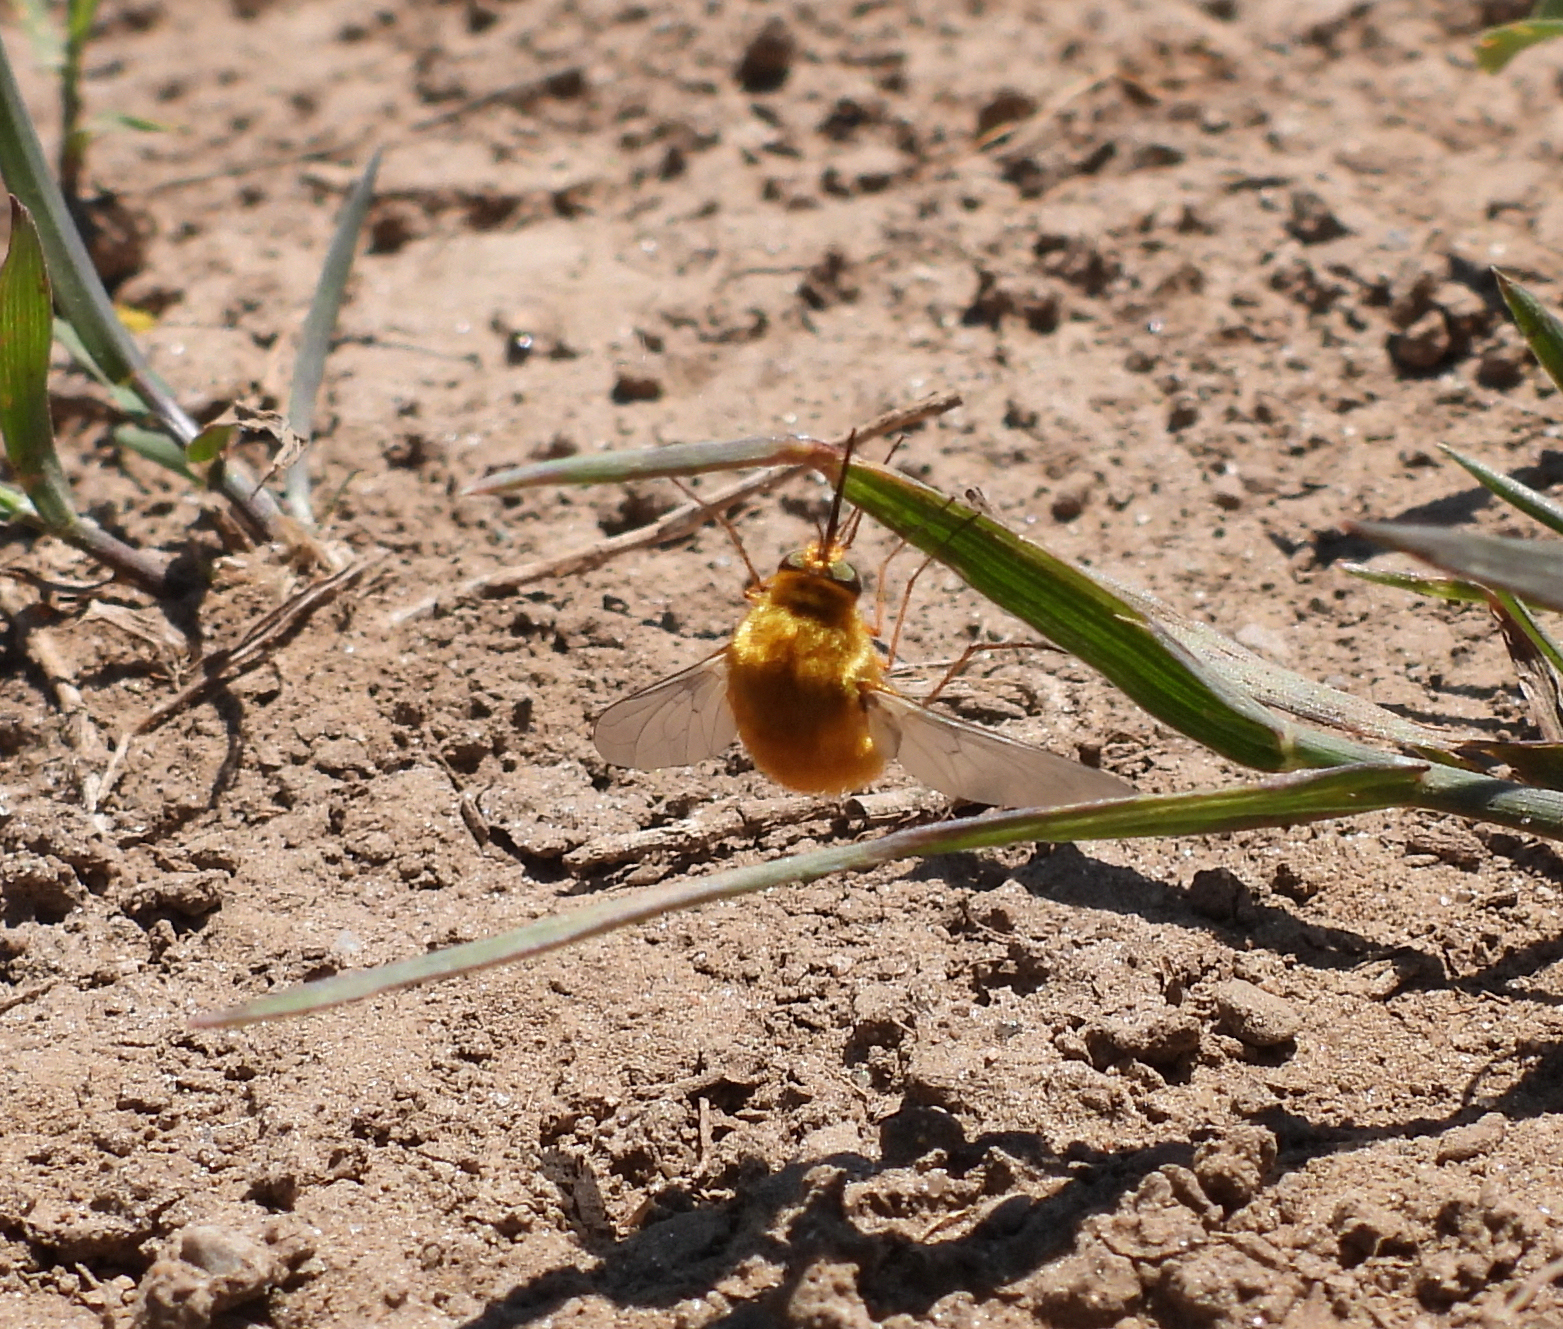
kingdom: Animalia
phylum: Arthropoda
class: Insecta
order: Diptera
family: Bombyliidae
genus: Bombylius
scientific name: Bombylius comanche
